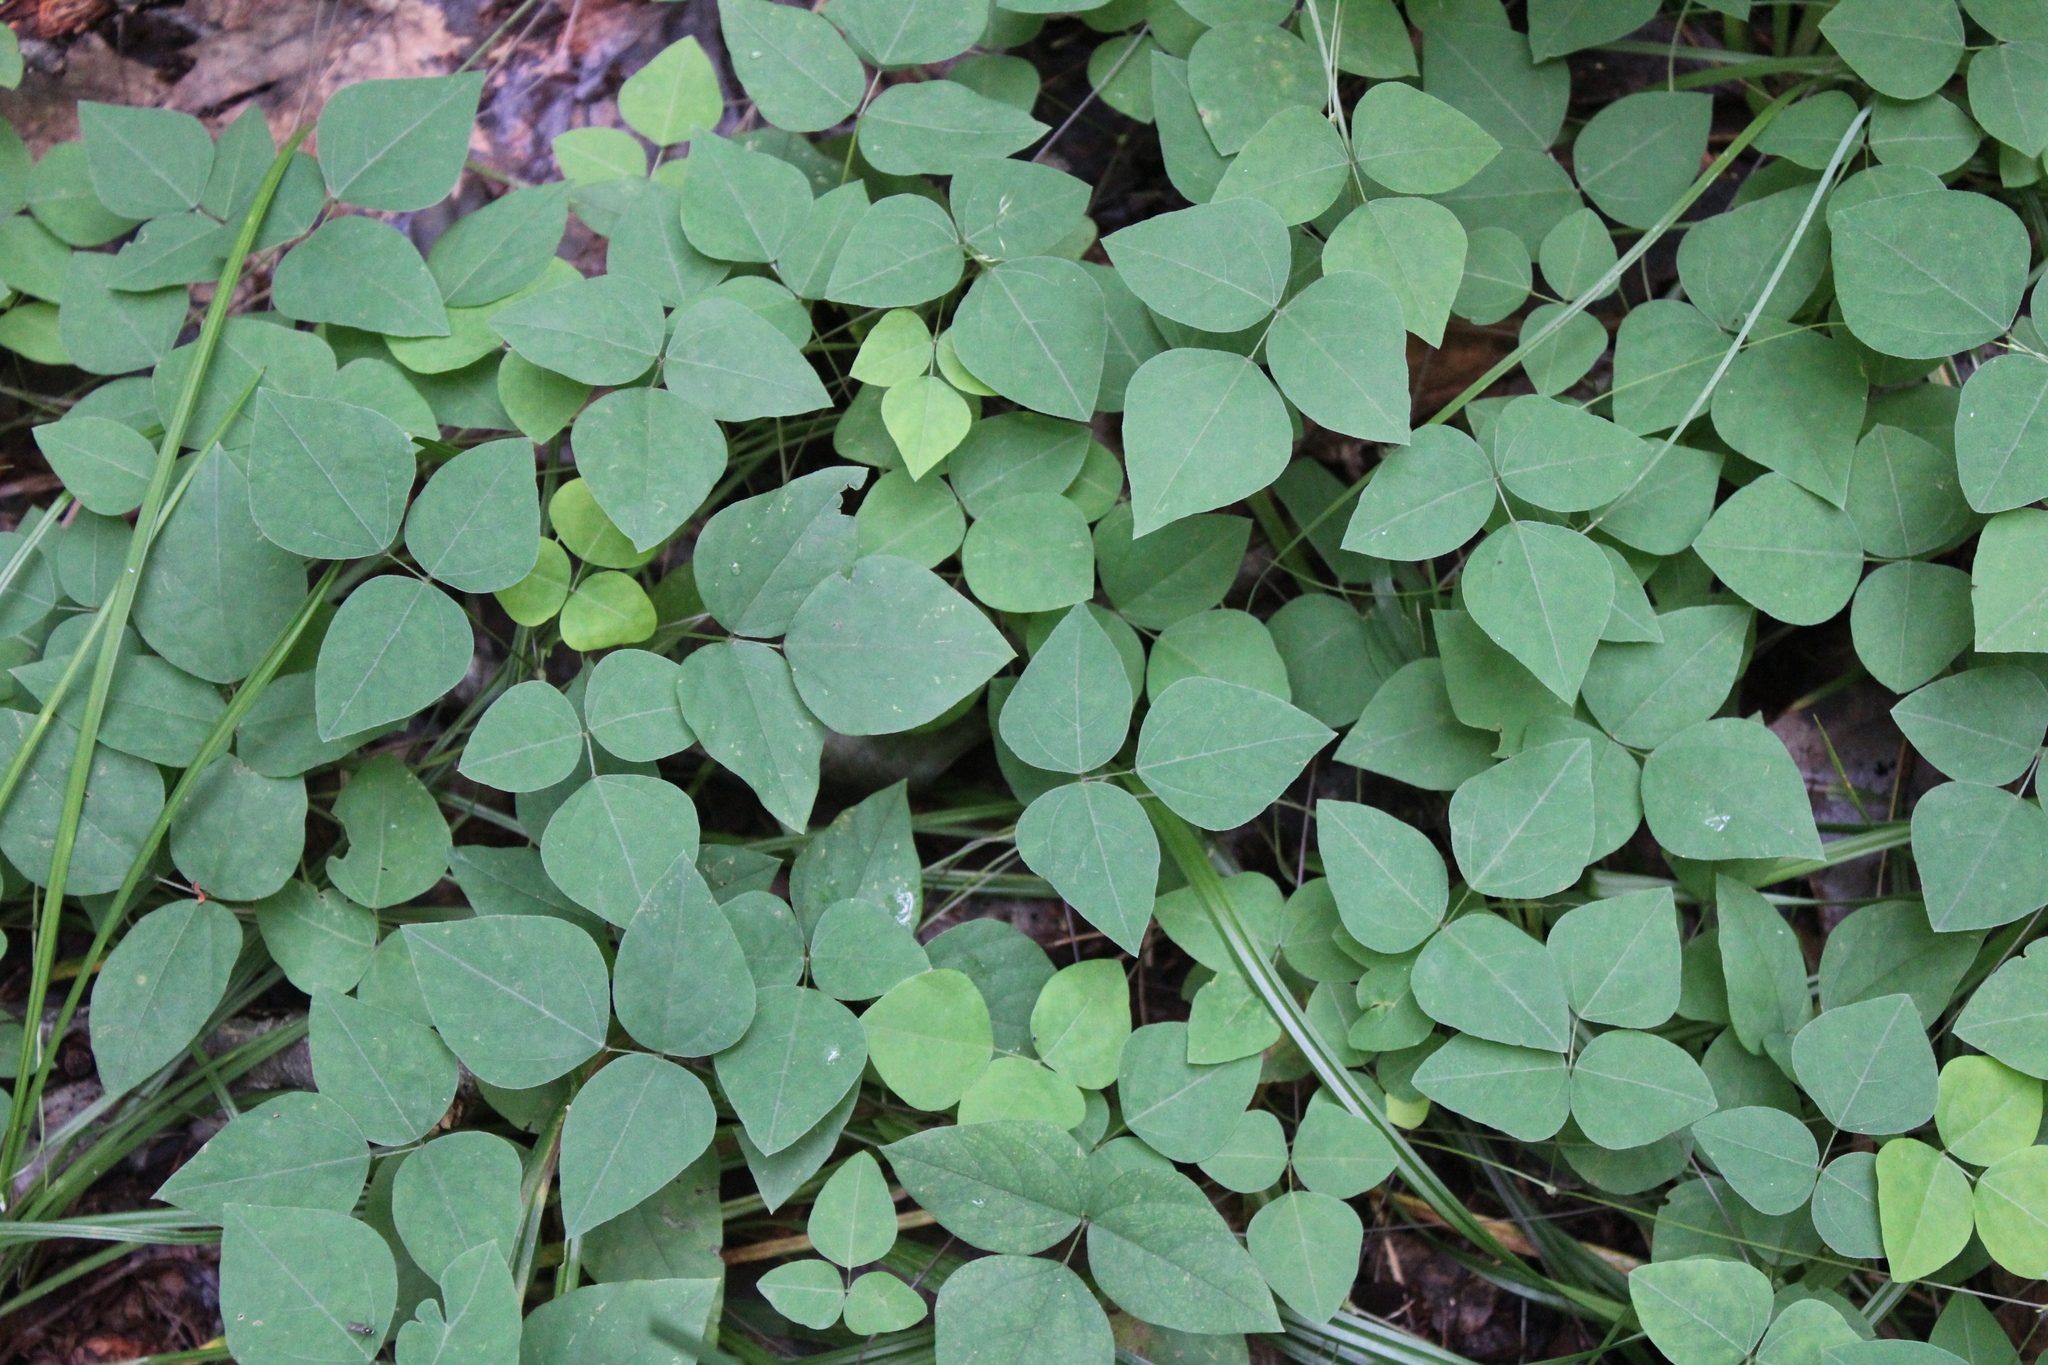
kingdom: Plantae
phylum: Tracheophyta
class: Magnoliopsida
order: Fabales
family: Fabaceae
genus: Amphicarpaea
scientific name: Amphicarpaea bracteata
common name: American hog peanut
